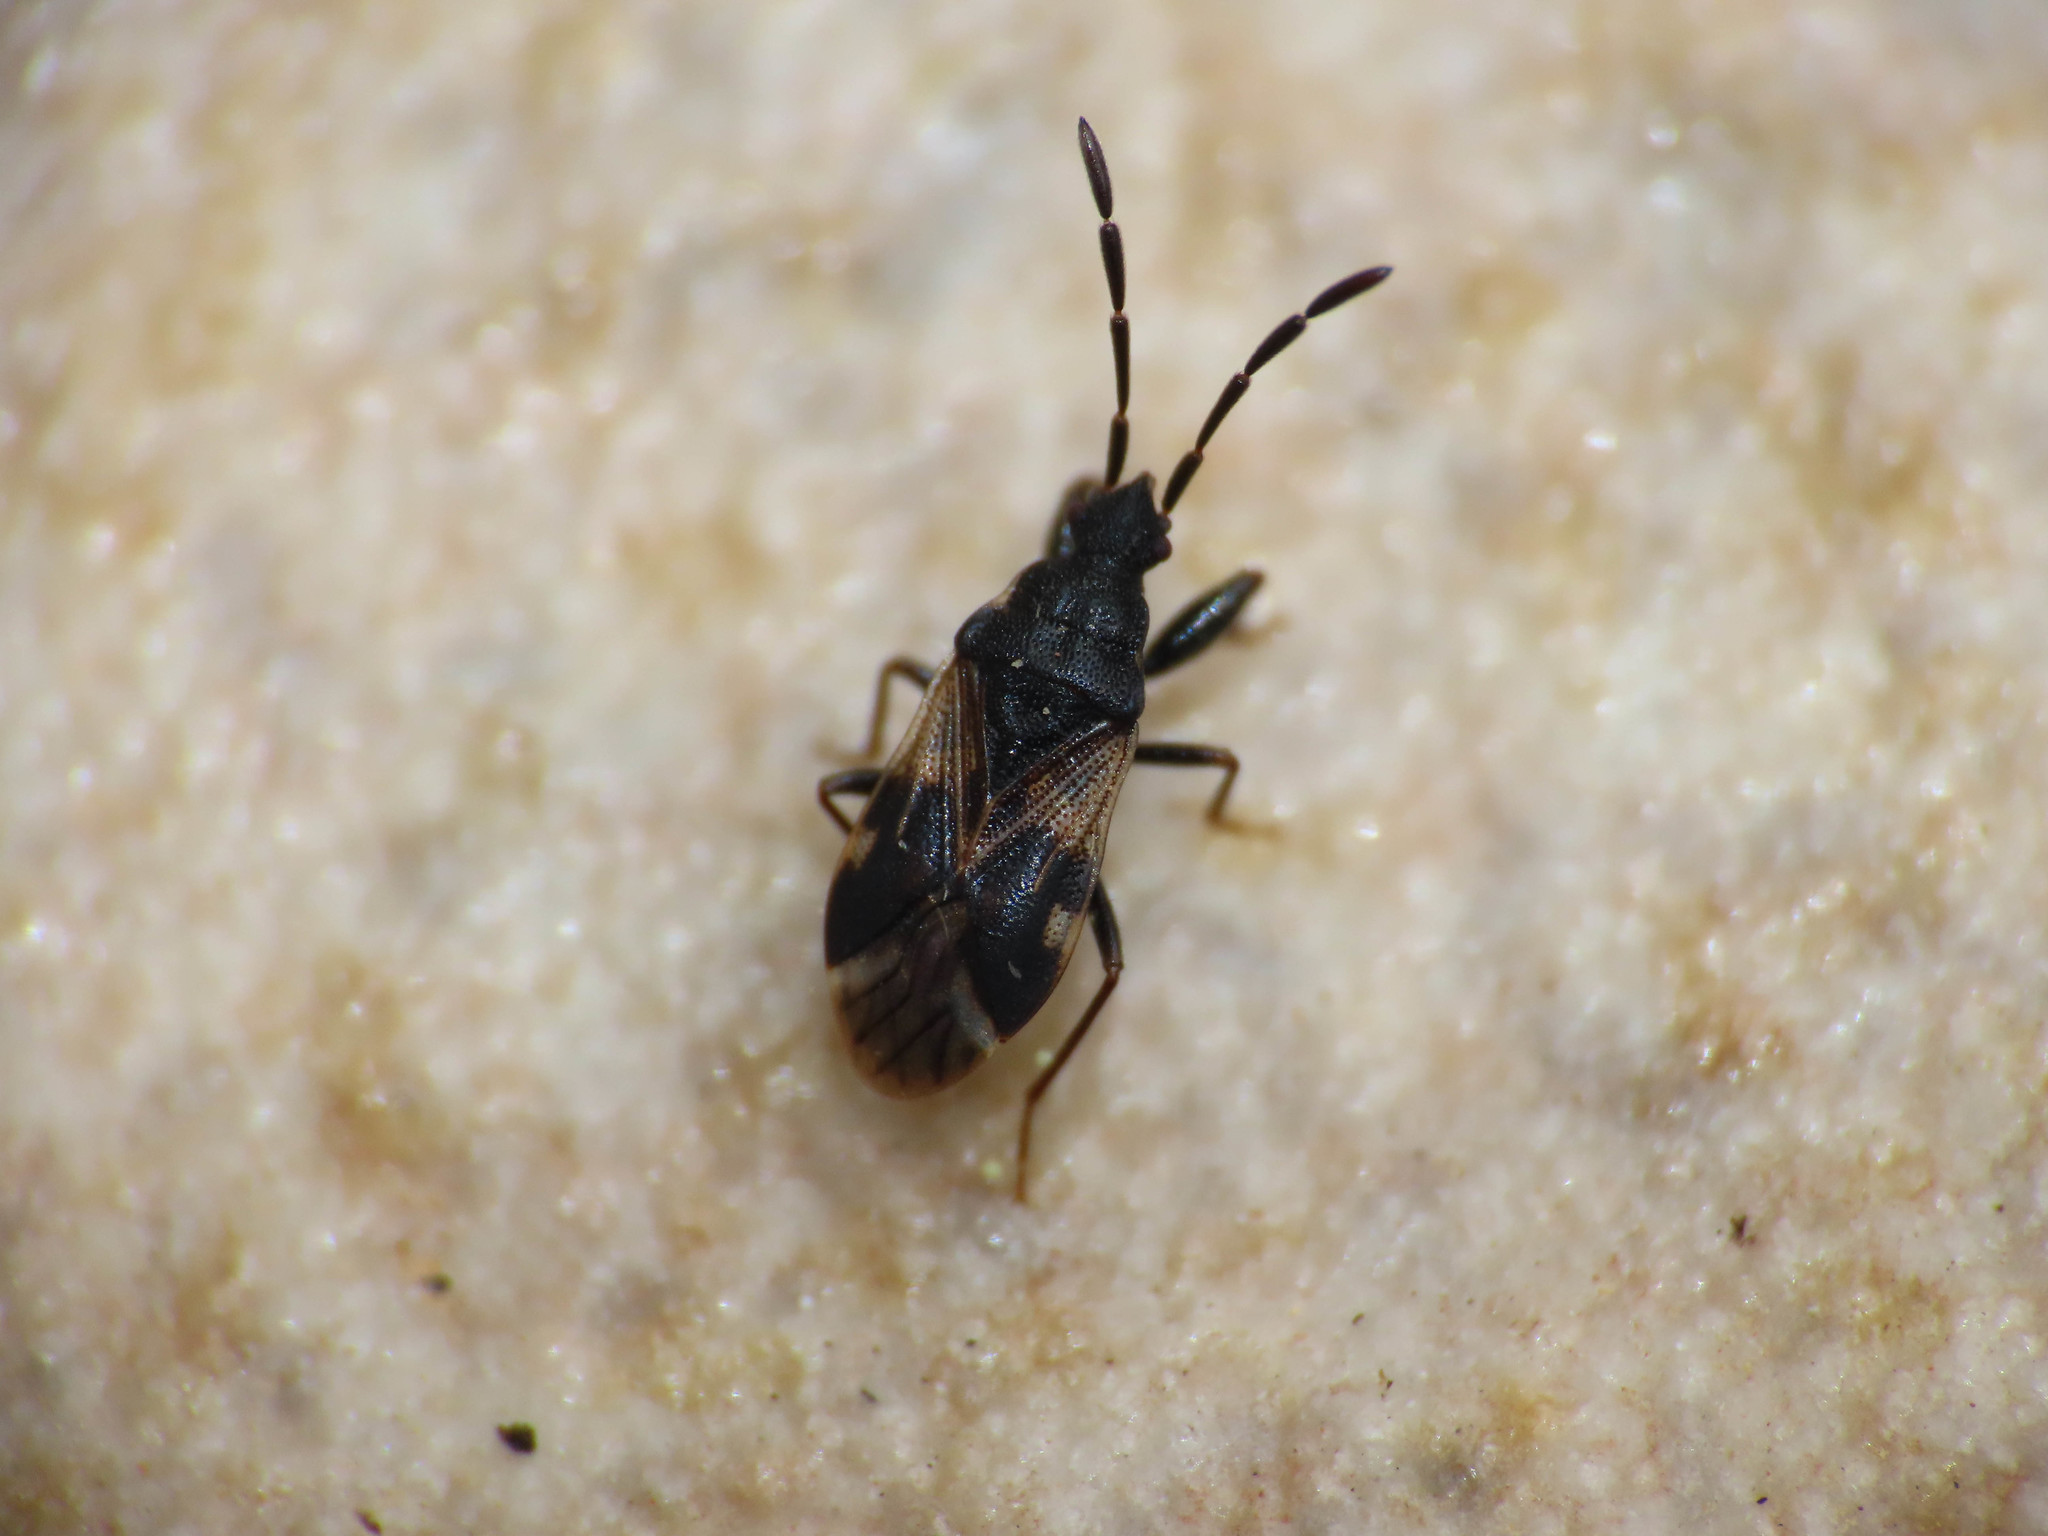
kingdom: Animalia
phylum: Arthropoda
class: Insecta
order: Hemiptera
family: Rhyparochromidae
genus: Taphropeltus
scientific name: Taphropeltus contractus
